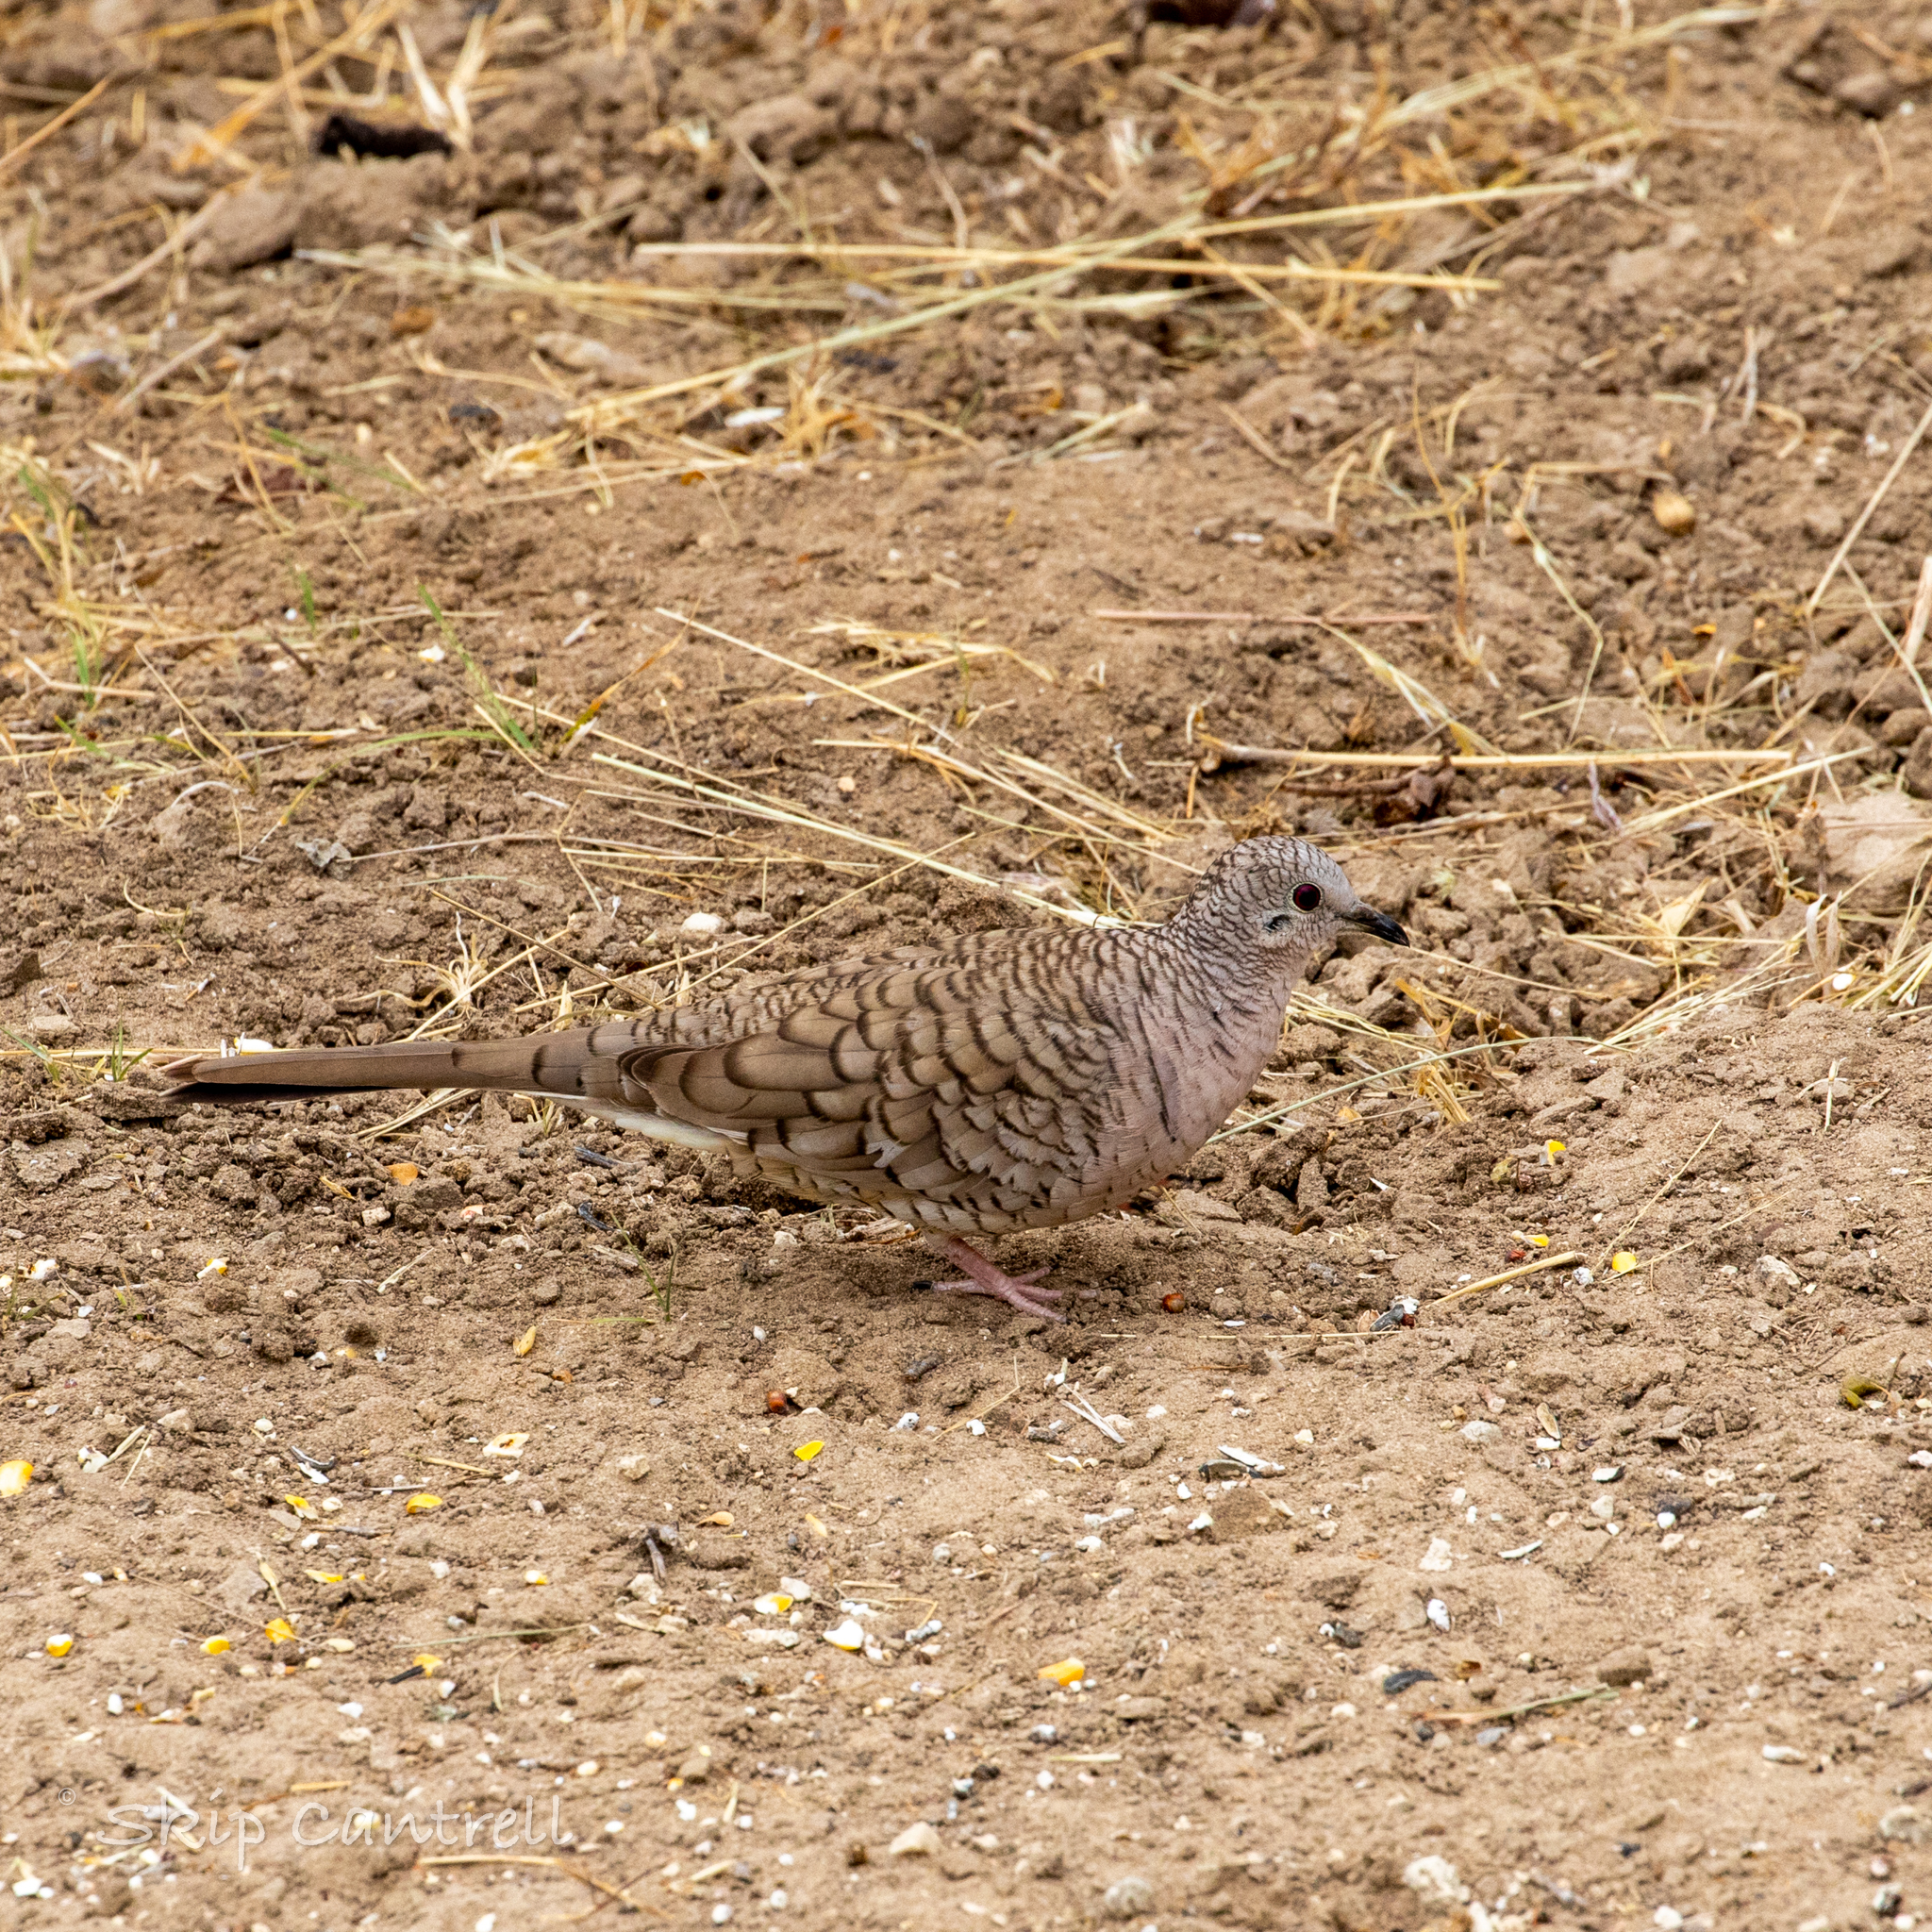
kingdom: Animalia
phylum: Chordata
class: Aves
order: Columbiformes
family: Columbidae
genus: Columbina
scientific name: Columbina inca
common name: Inca dove
